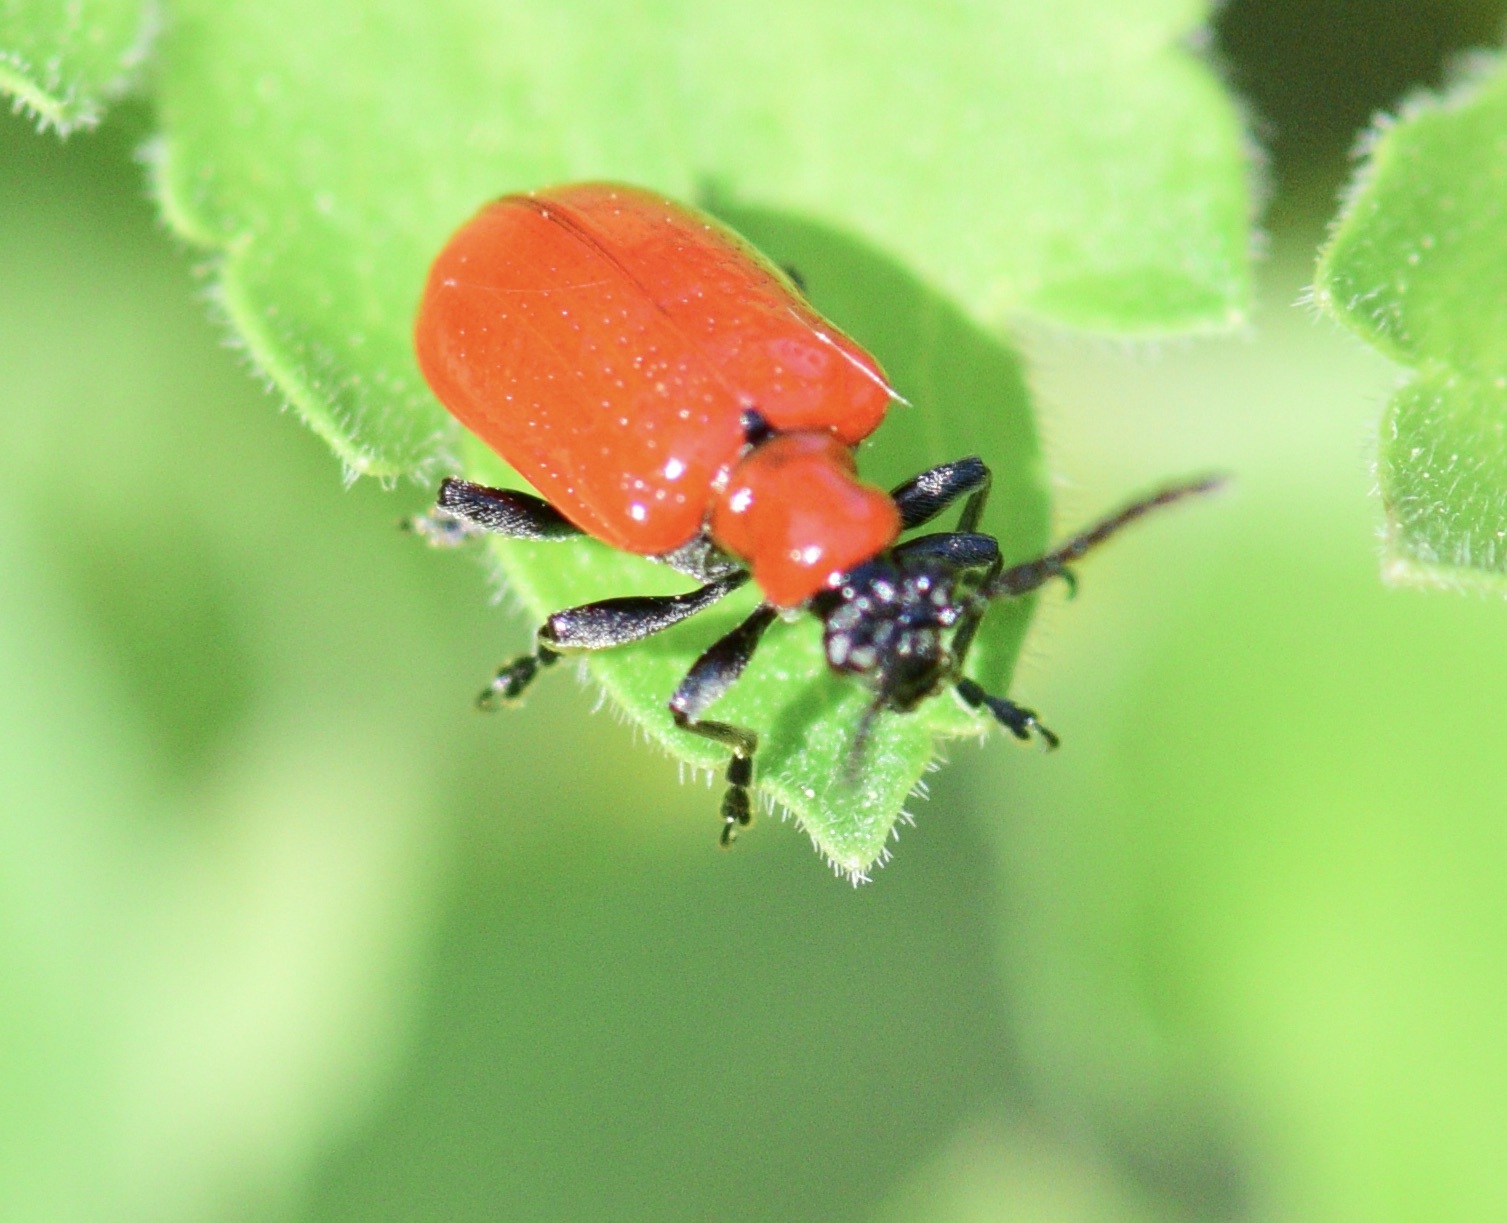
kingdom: Animalia
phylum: Arthropoda
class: Insecta
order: Coleoptera
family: Chrysomelidae
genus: Lilioceris
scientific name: Lilioceris lilii
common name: Lily beetle
